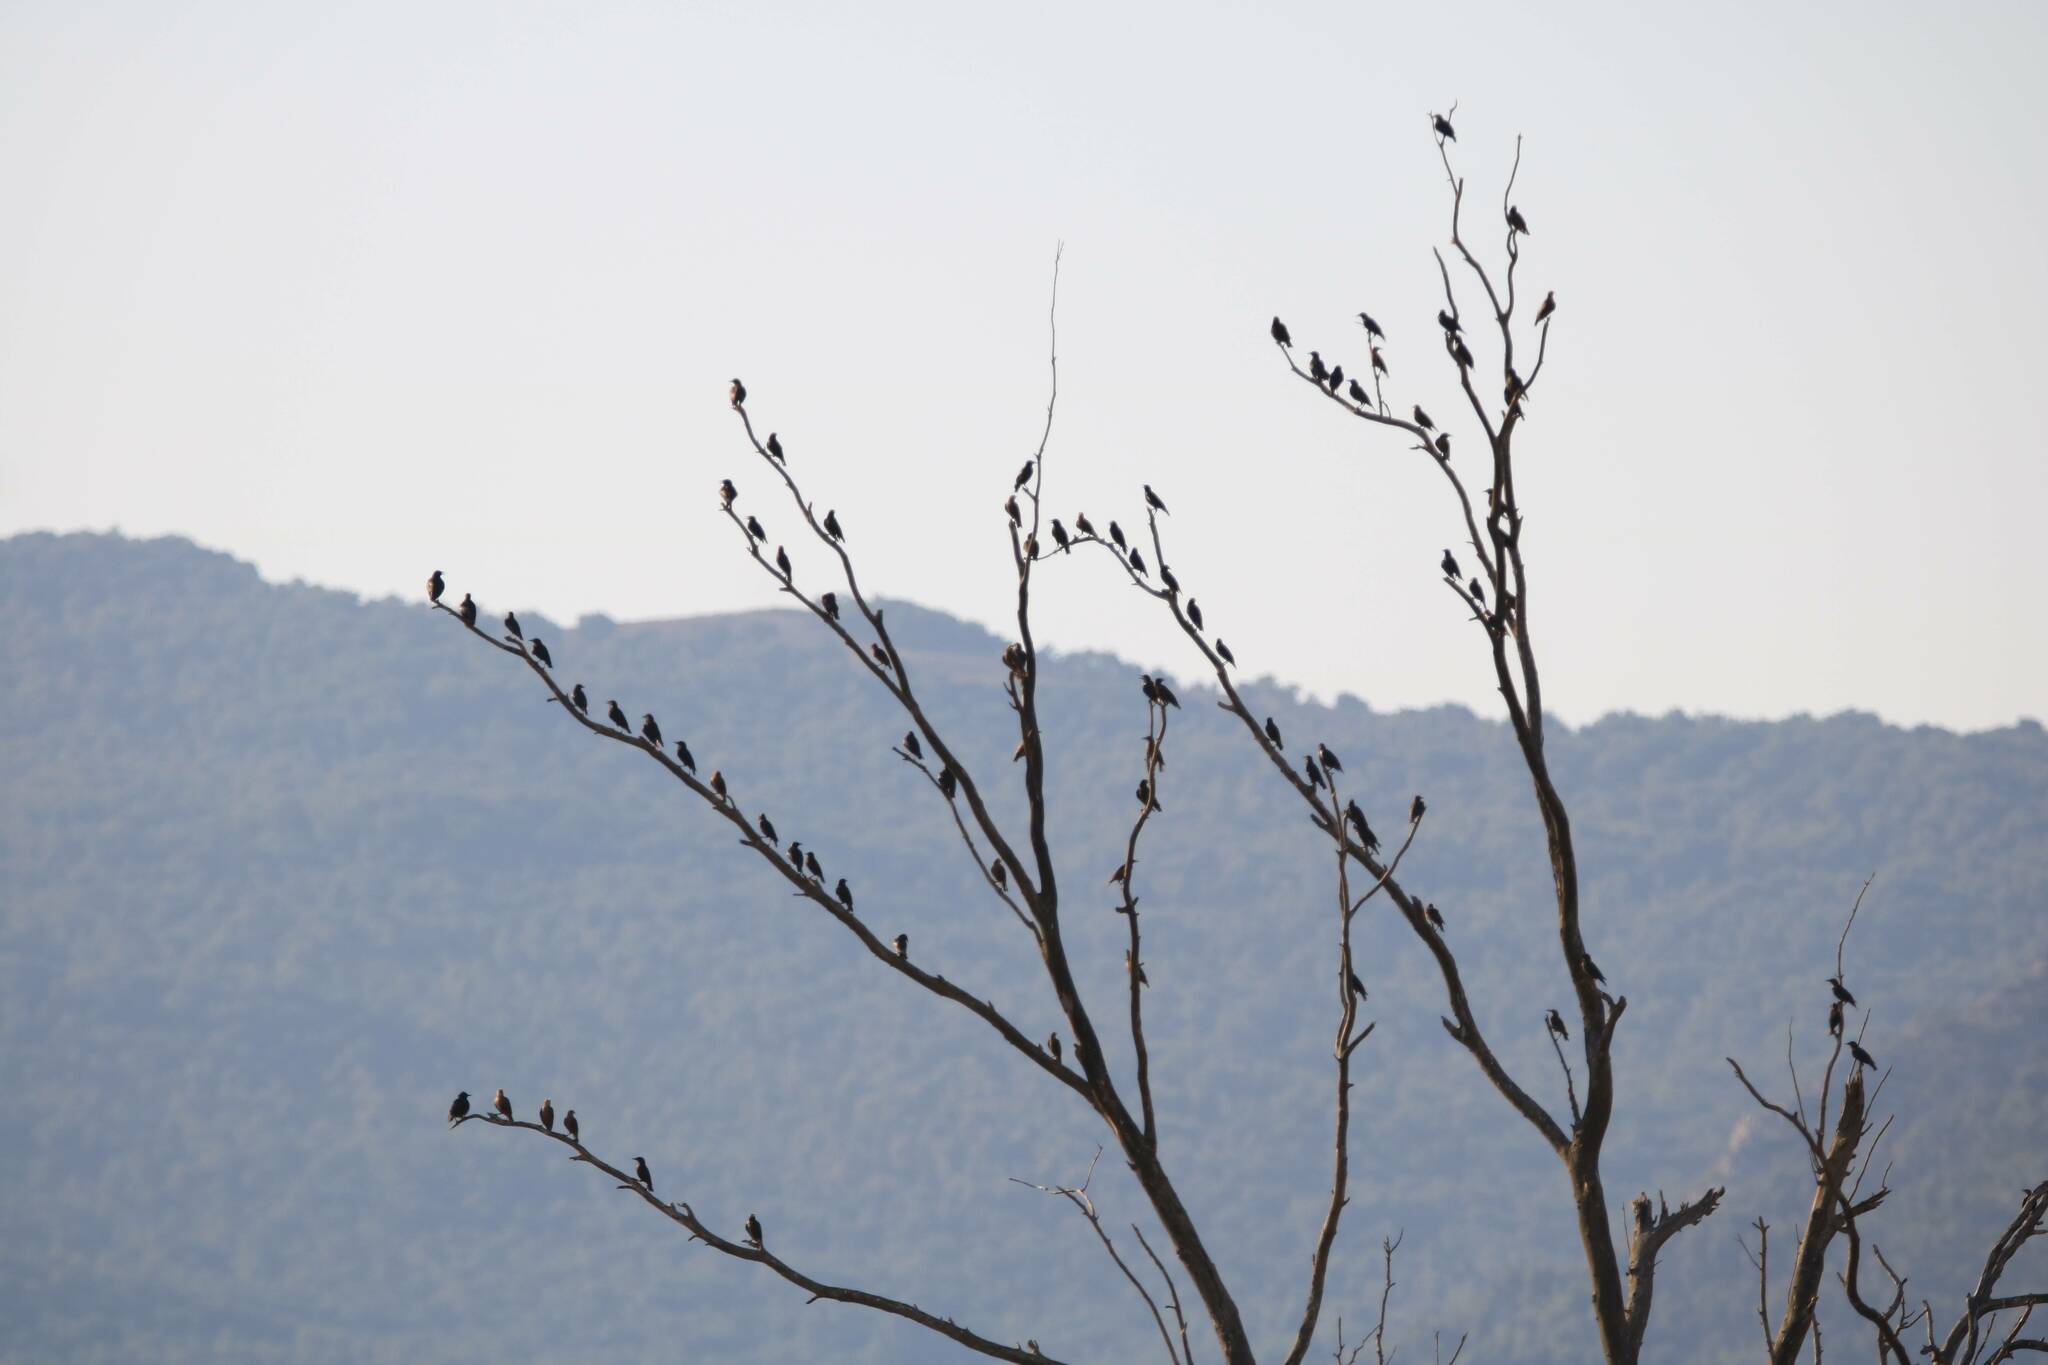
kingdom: Animalia
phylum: Chordata
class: Aves
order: Passeriformes
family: Sturnidae
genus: Sturnus
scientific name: Sturnus unicolor
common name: Spotless starling
